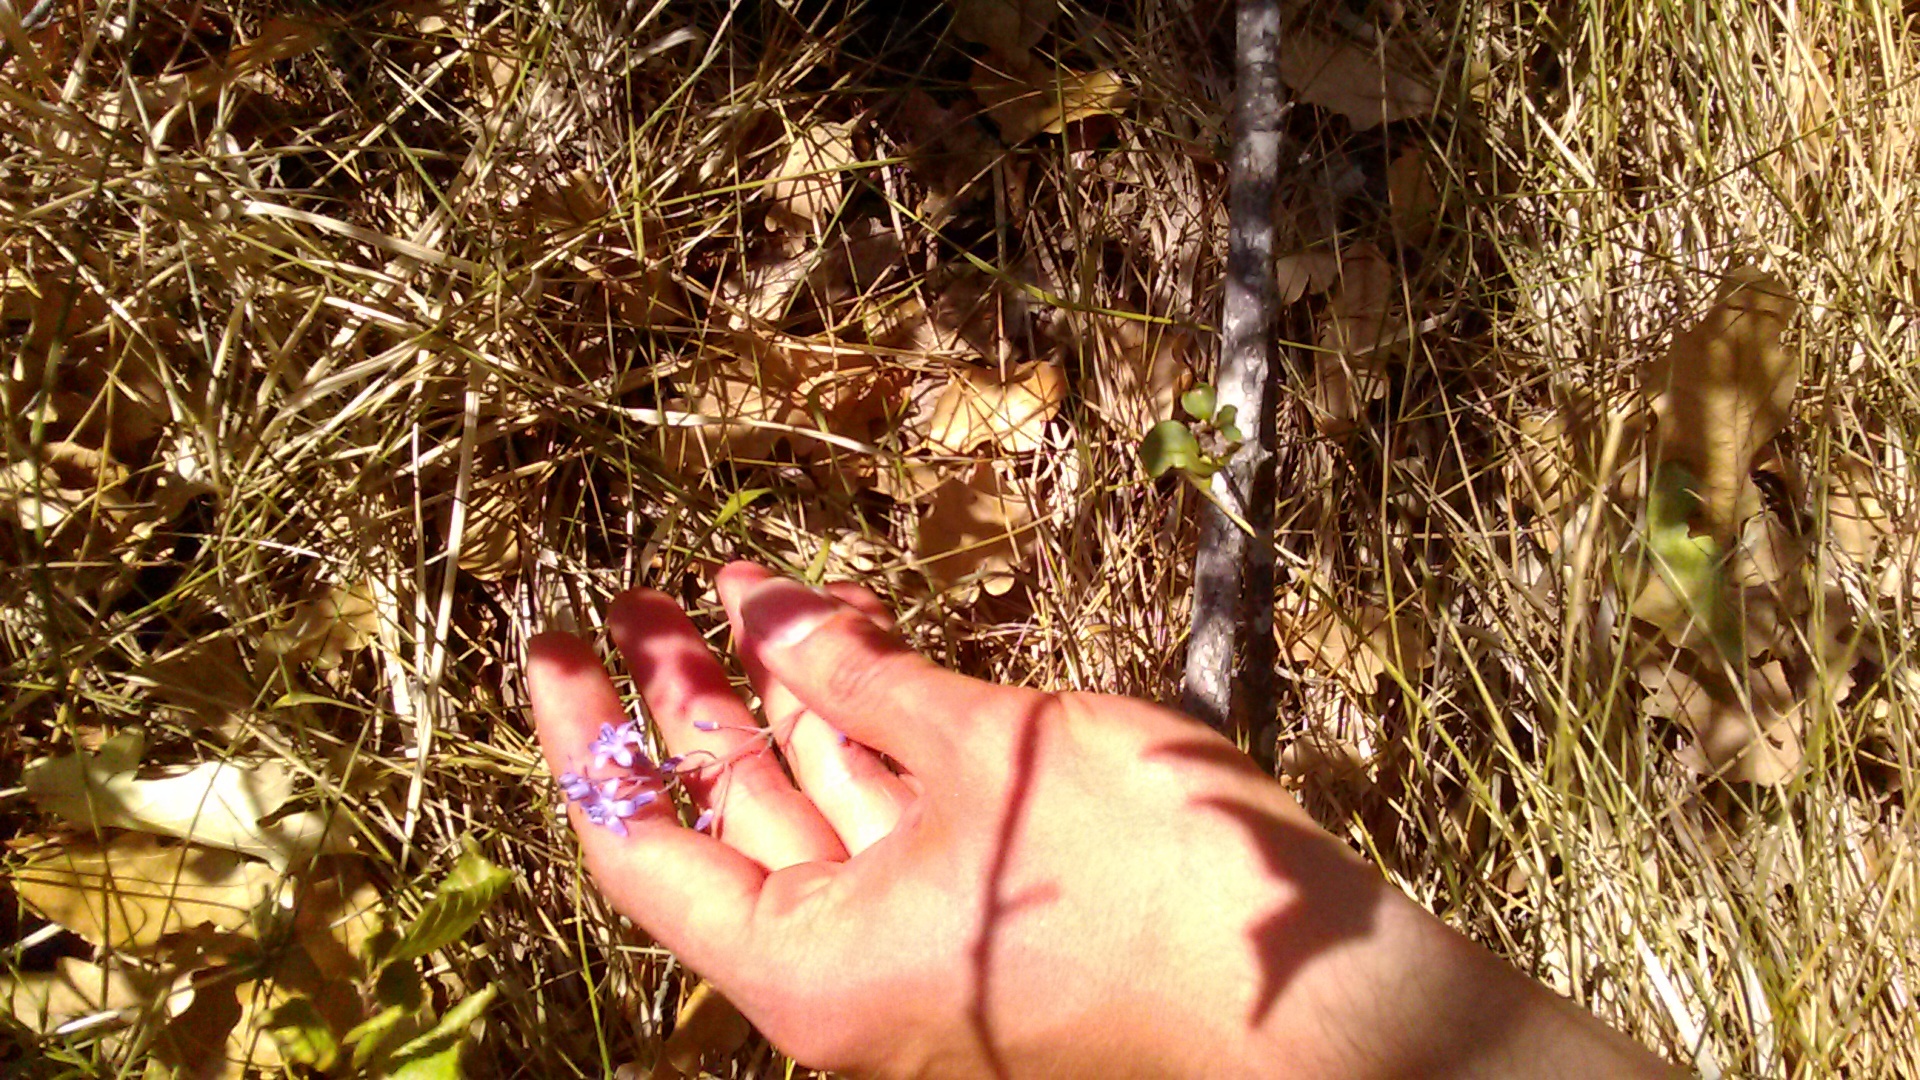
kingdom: Plantae
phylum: Tracheophyta
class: Liliopsida
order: Asparagales
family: Asparagaceae
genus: Prospero
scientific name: Prospero autumnale
